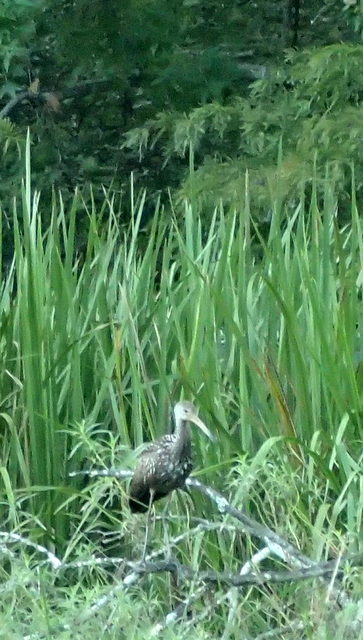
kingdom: Animalia
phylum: Chordata
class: Aves
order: Gruiformes
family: Aramidae
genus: Aramus
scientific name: Aramus guarauna
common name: Limpkin
